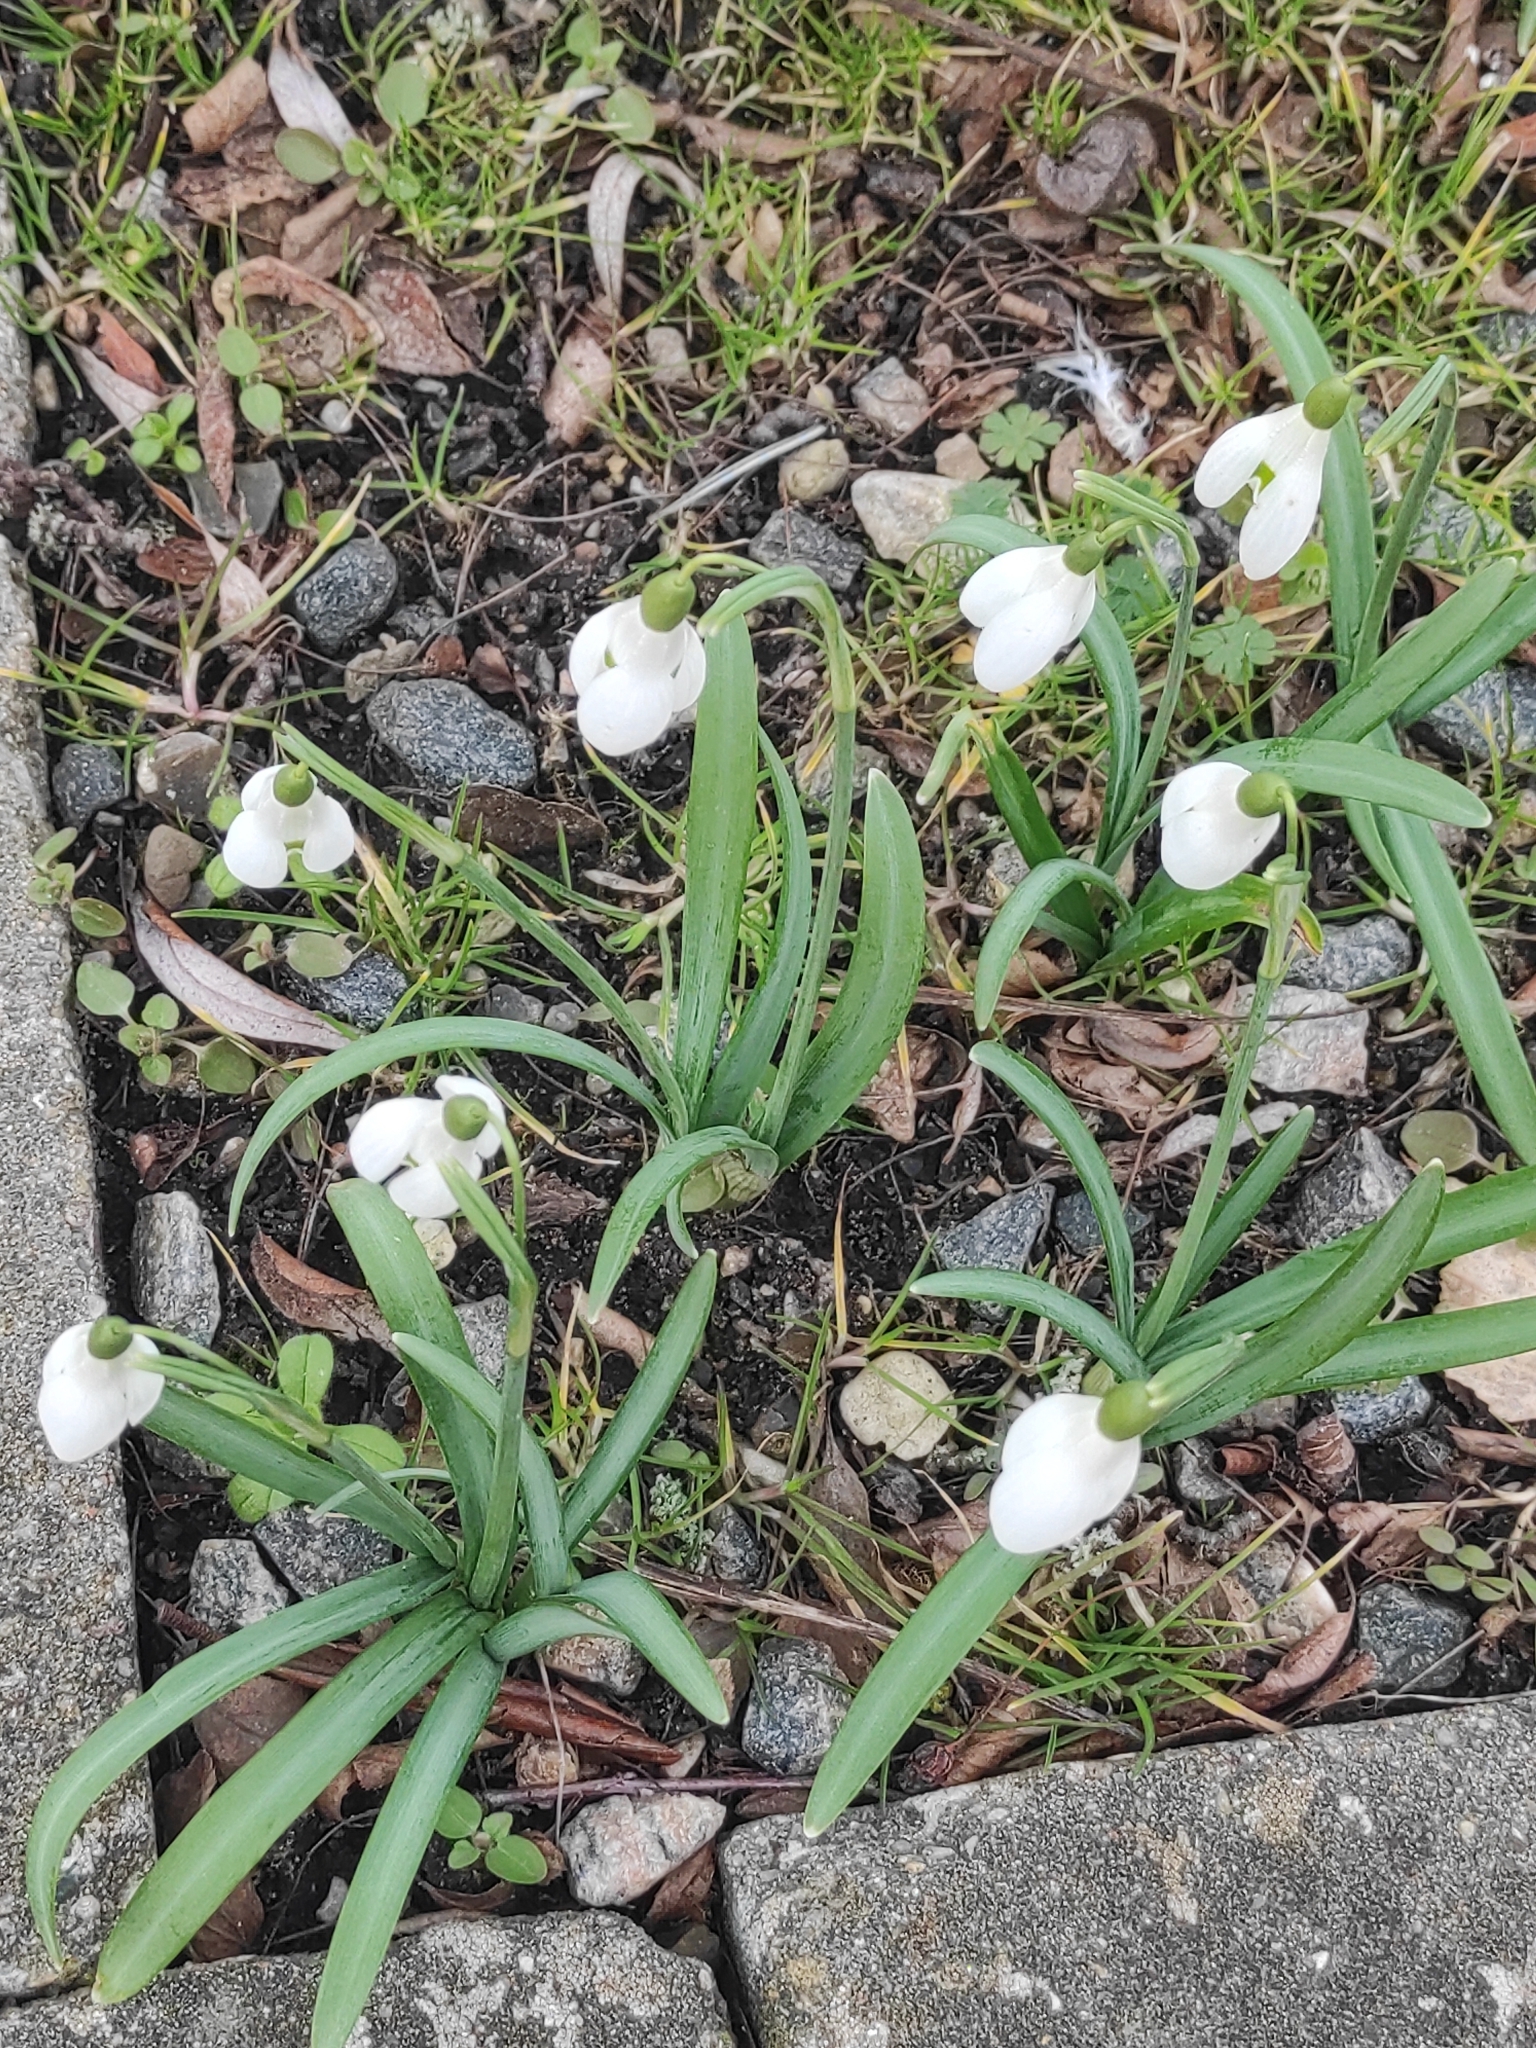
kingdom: Plantae
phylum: Tracheophyta
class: Liliopsida
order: Asparagales
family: Amaryllidaceae
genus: Galanthus
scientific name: Galanthus nivalis
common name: Snowdrop
